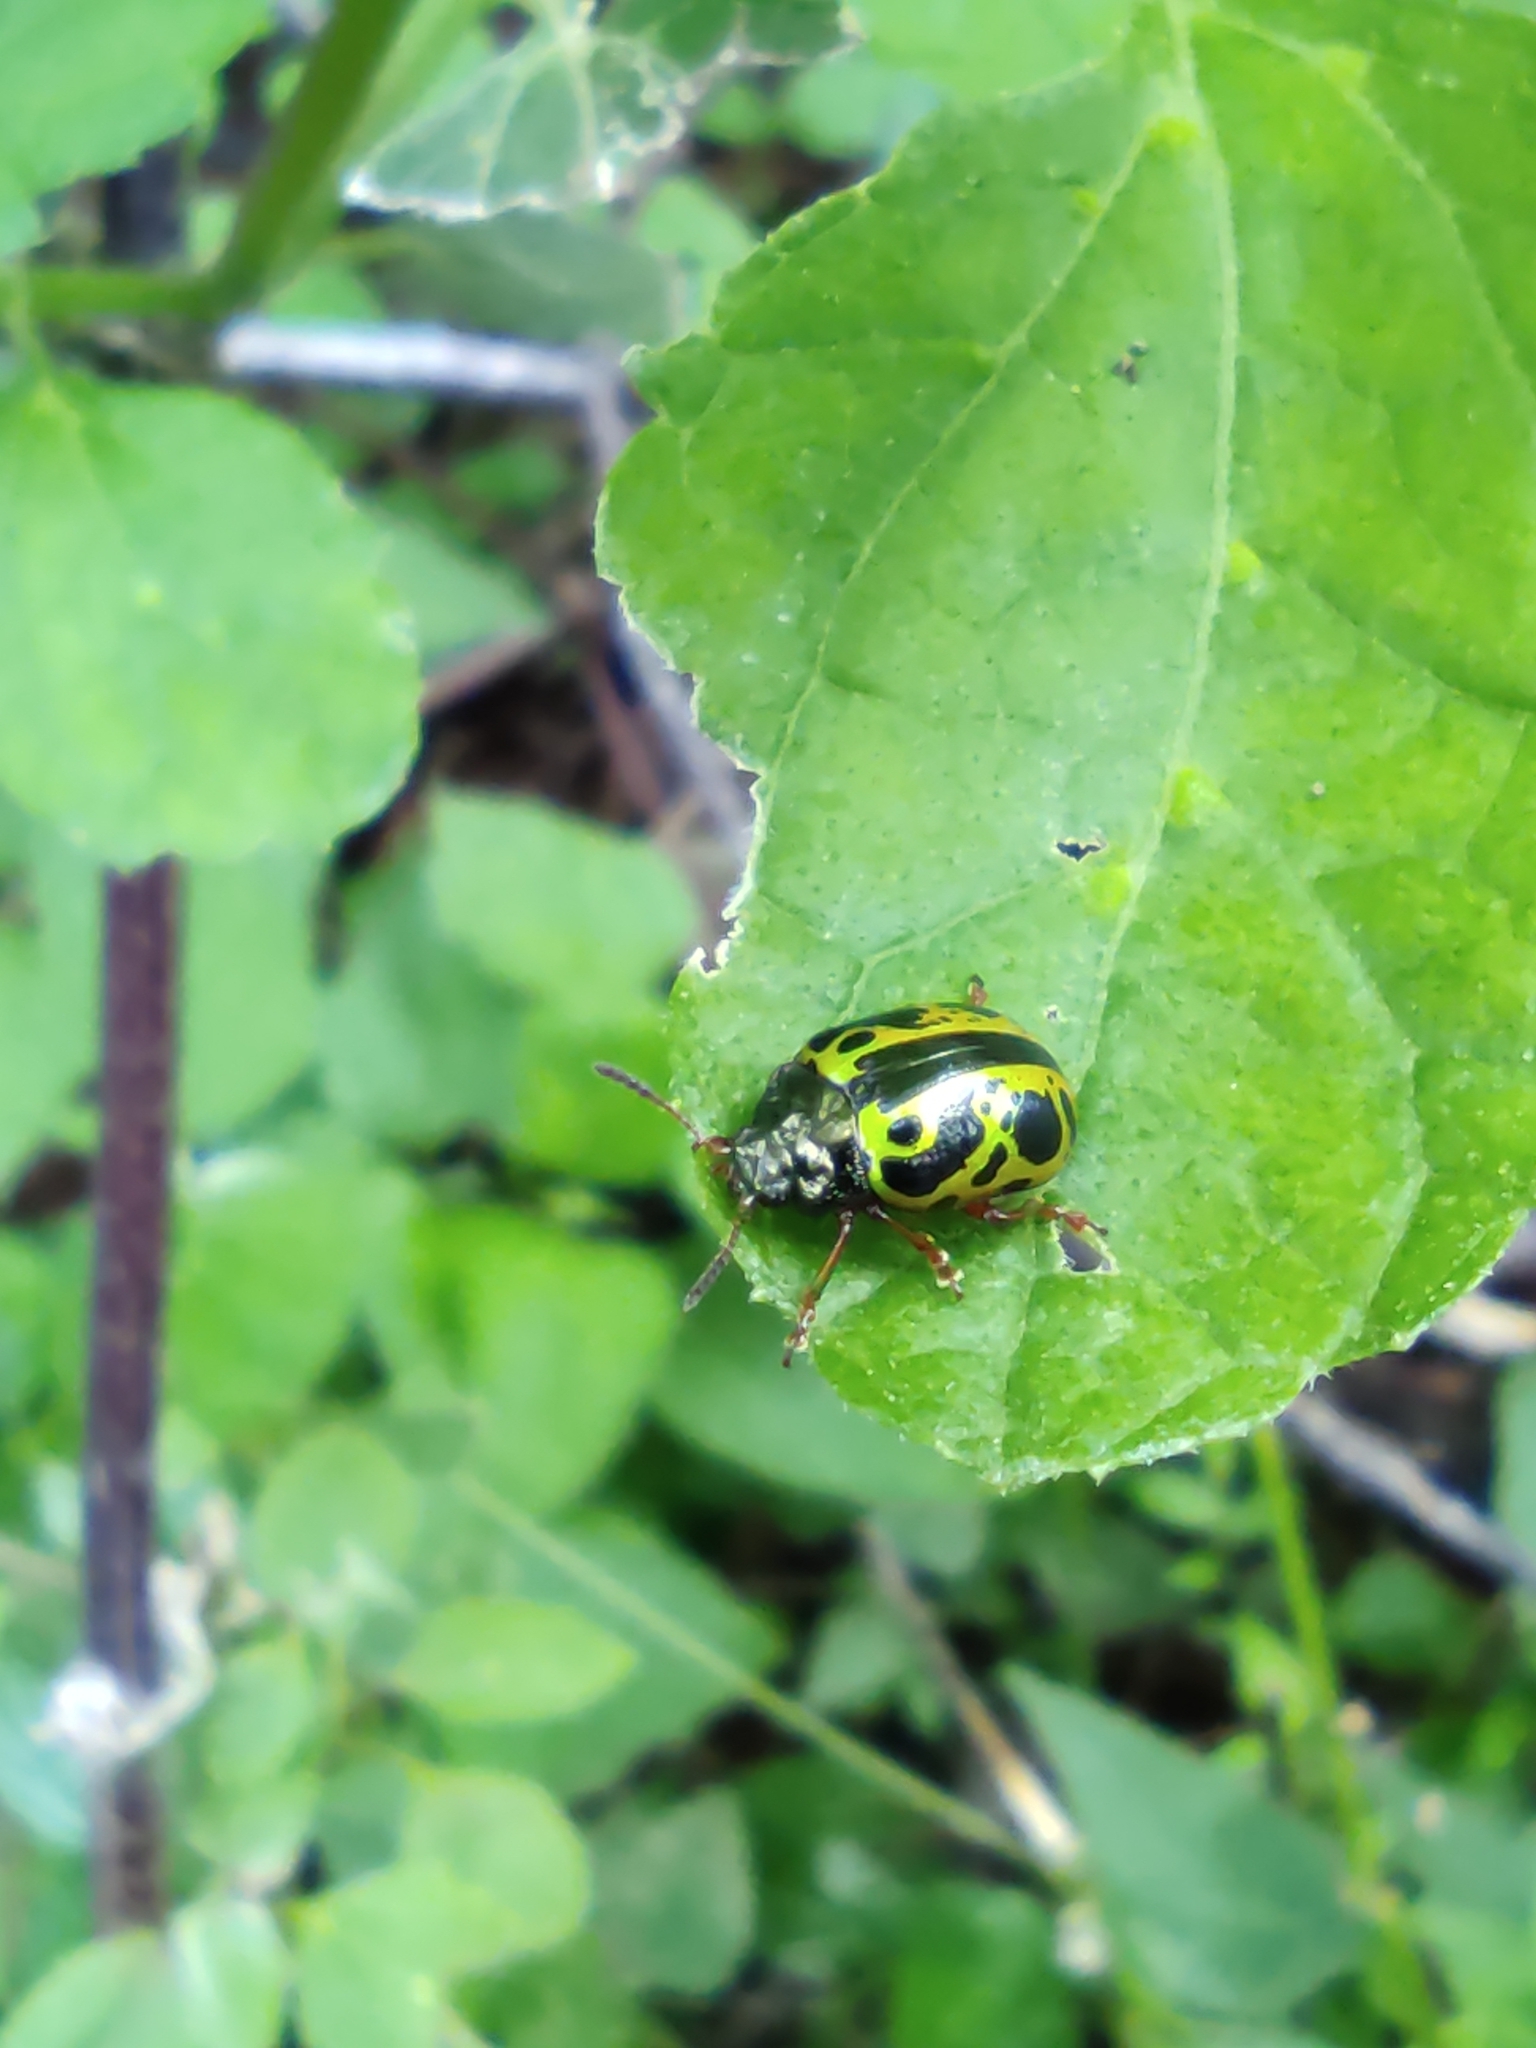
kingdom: Animalia
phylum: Arthropoda
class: Insecta
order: Coleoptera
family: Chrysomelidae
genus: Calligrapha
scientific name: Calligrapha fulvipes
